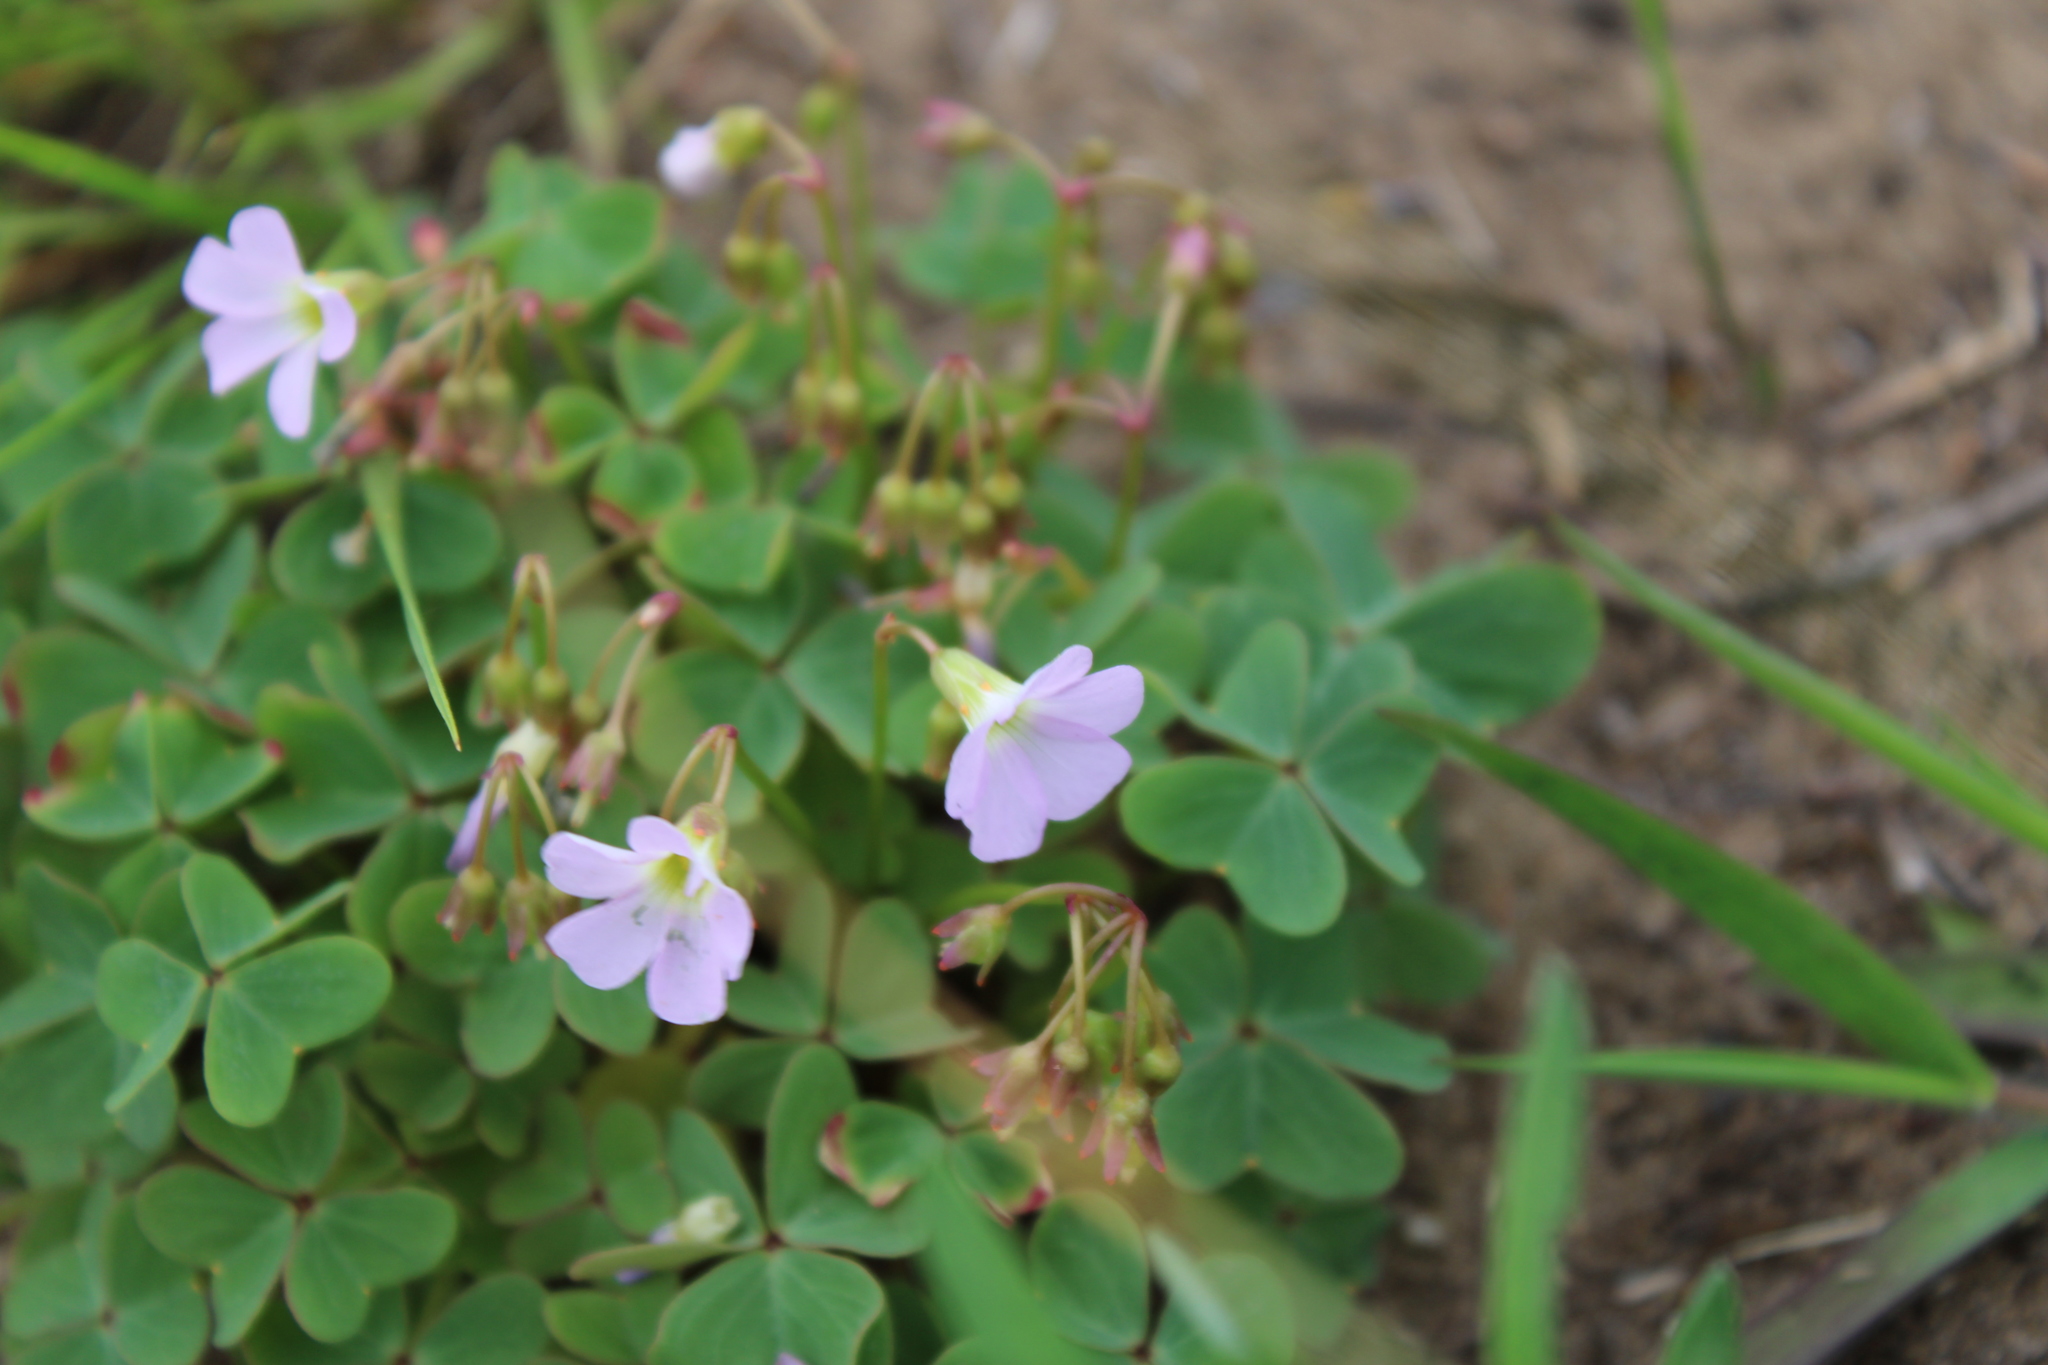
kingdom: Plantae
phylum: Tracheophyta
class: Magnoliopsida
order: Oxalidales
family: Oxalidaceae
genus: Oxalis
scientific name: Oxalis violacea
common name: Violet wood-sorrel
